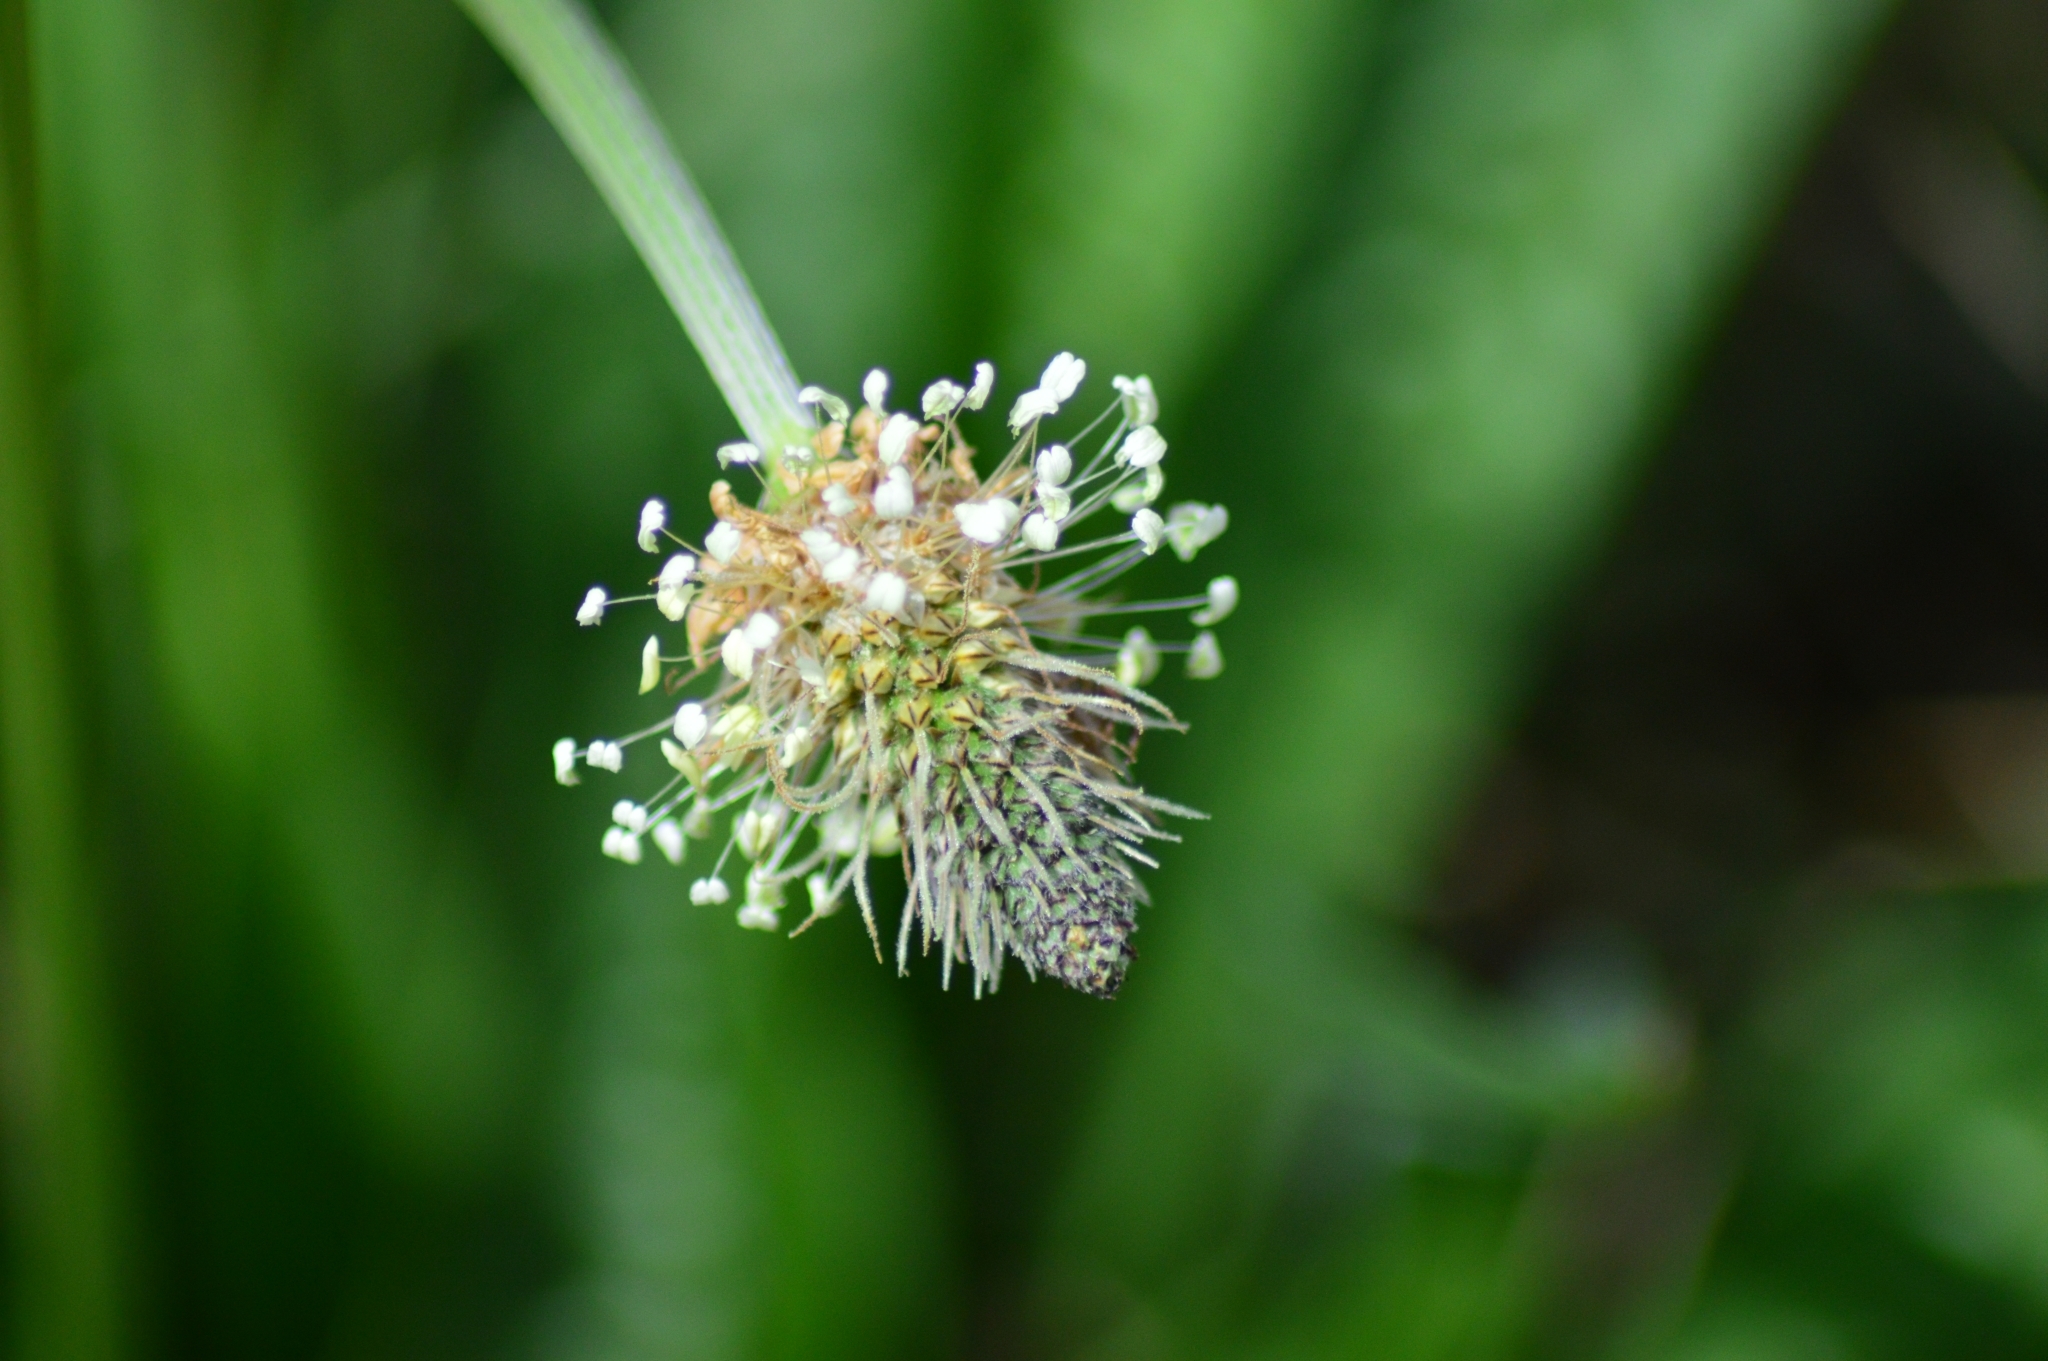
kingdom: Plantae
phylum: Tracheophyta
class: Magnoliopsida
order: Lamiales
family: Plantaginaceae
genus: Plantago
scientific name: Plantago lanceolata
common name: Ribwort plantain
